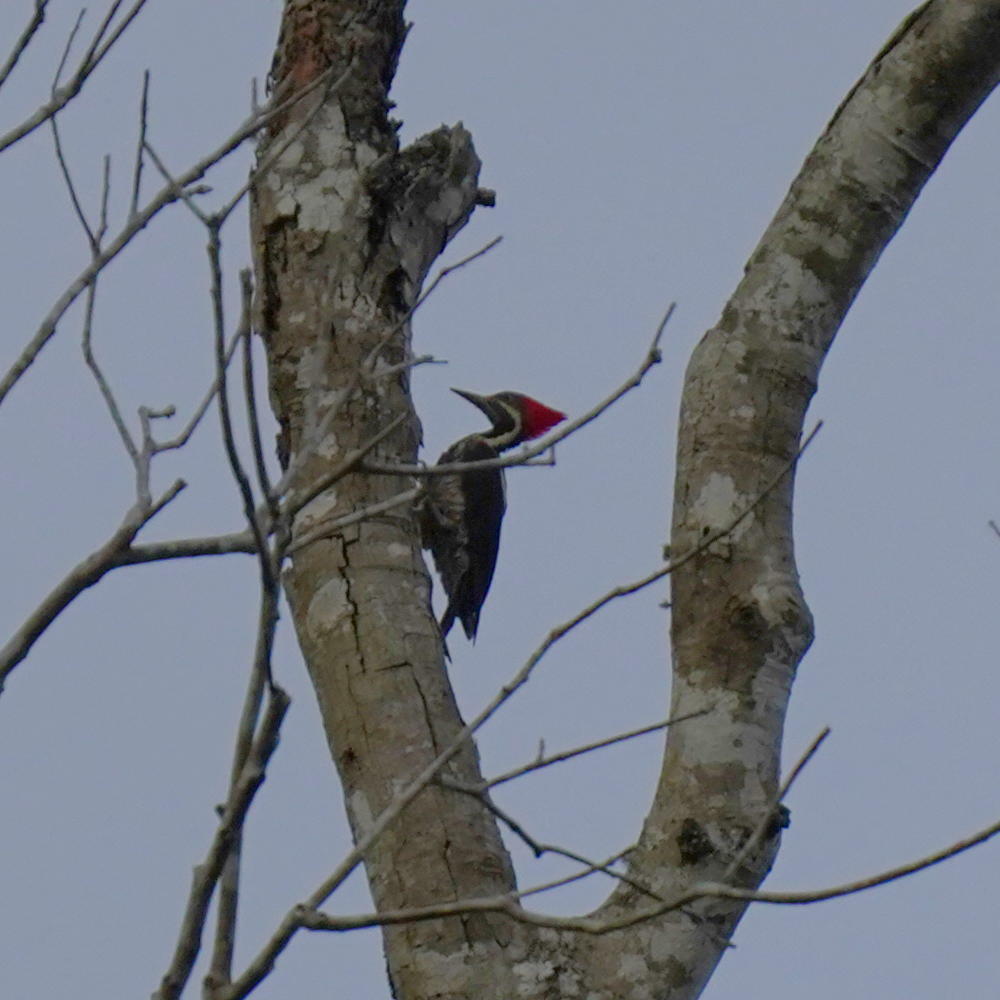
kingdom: Animalia
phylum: Chordata
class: Aves
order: Piciformes
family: Picidae
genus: Dryocopus
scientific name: Dryocopus lineatus
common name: Lineated woodpecker
